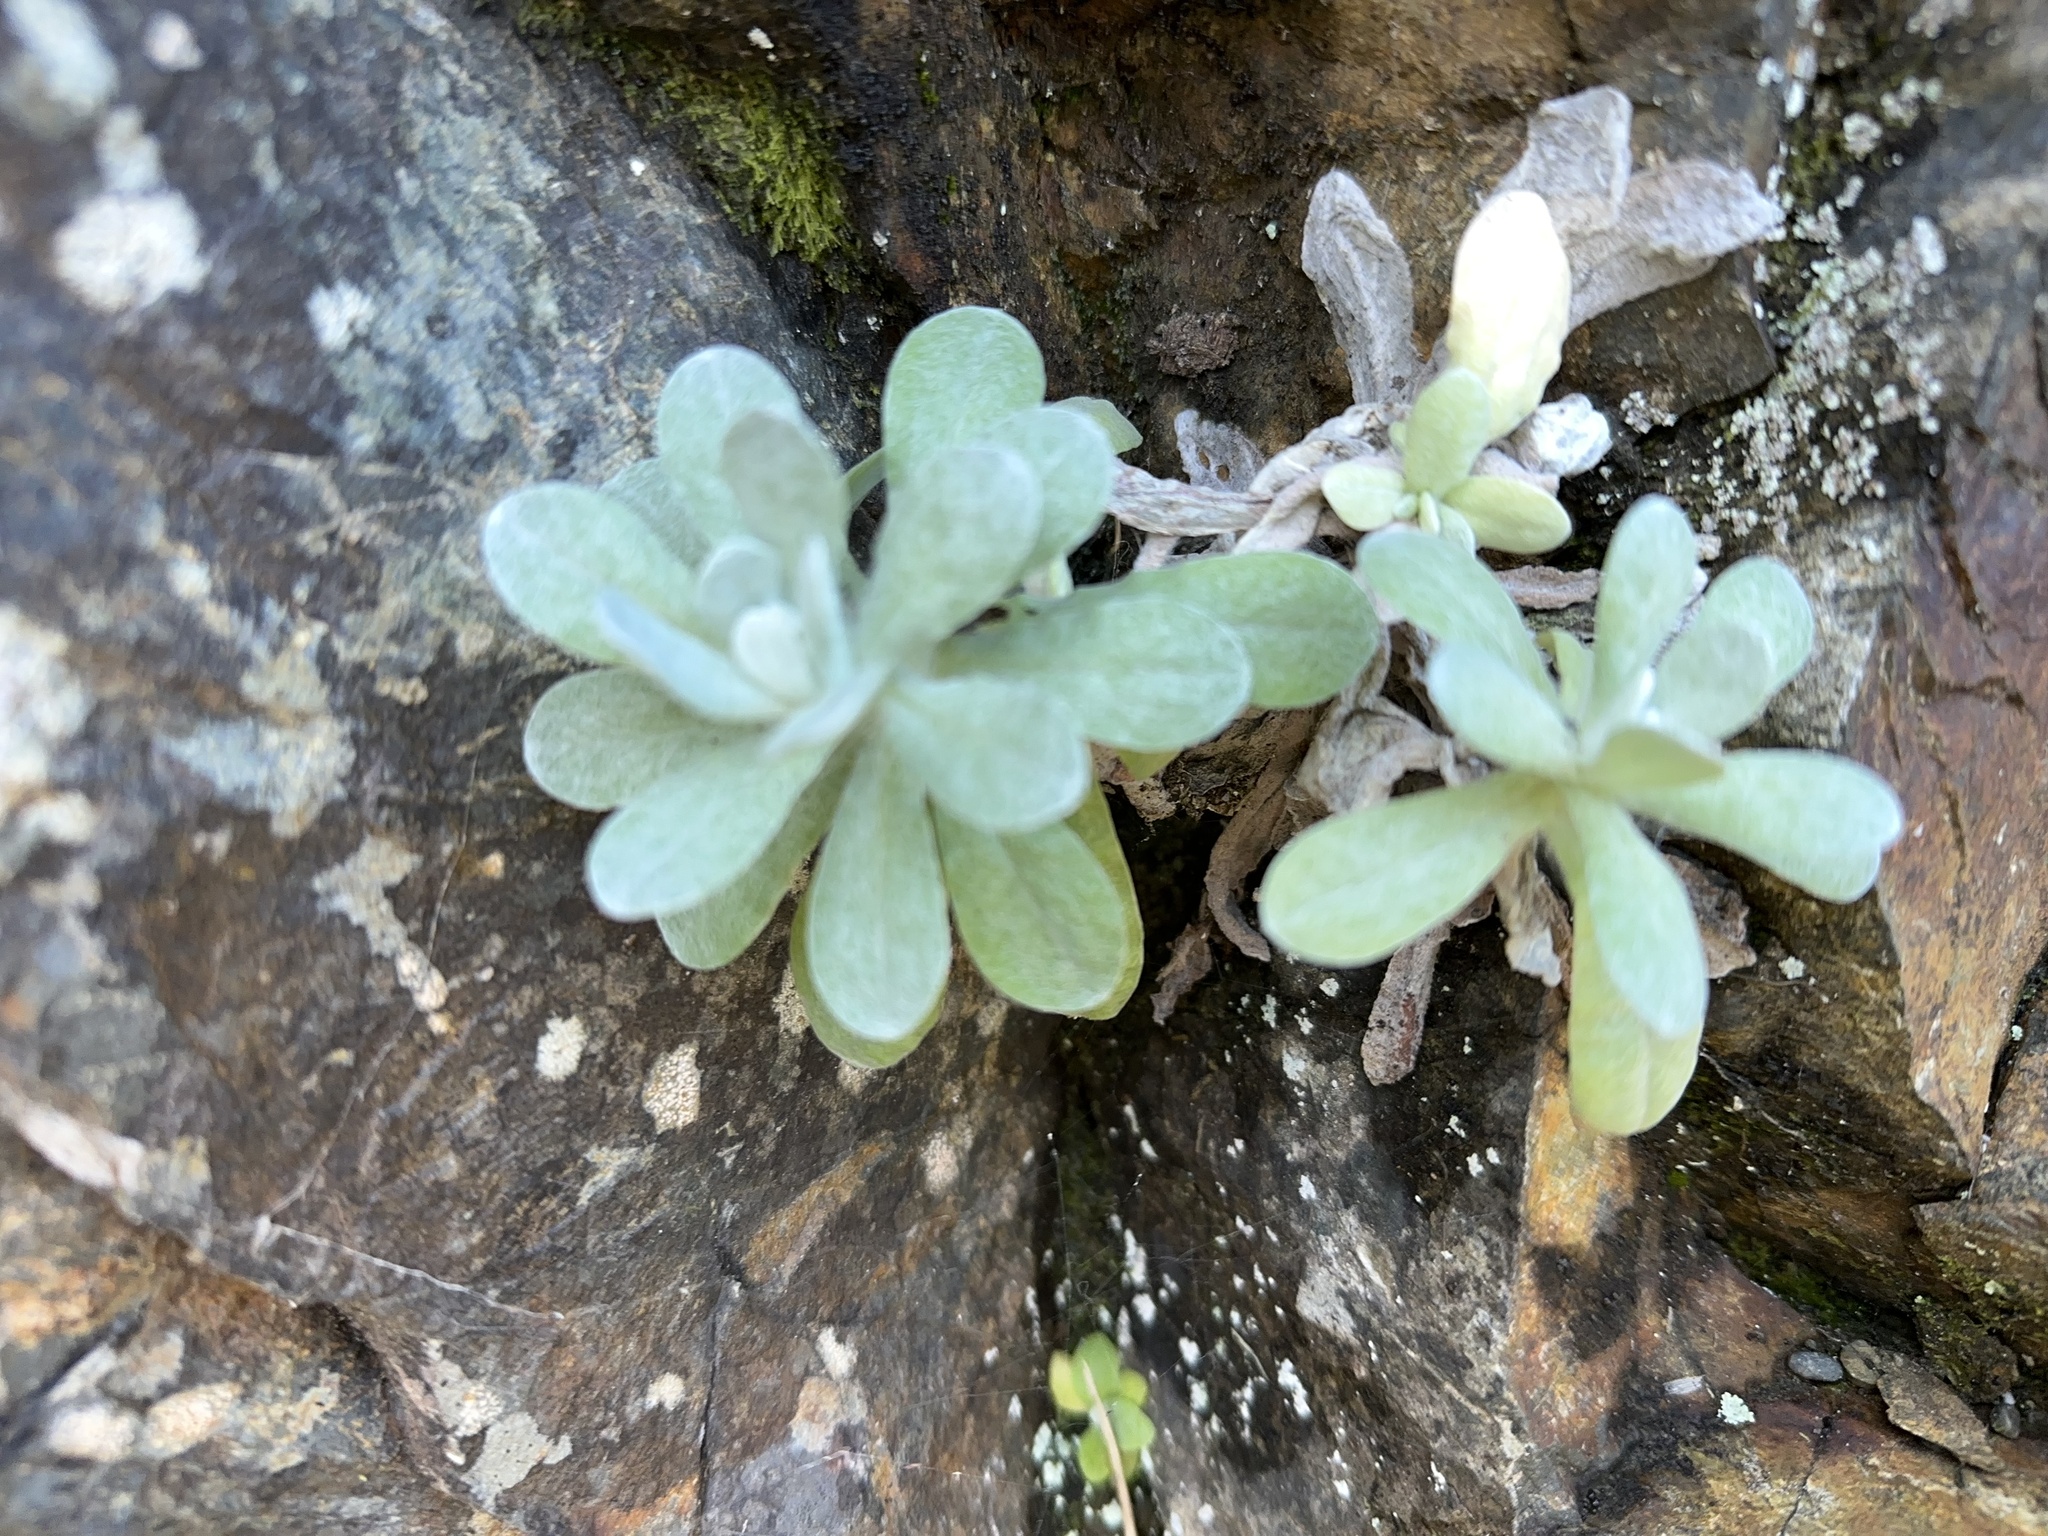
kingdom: Plantae
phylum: Tracheophyta
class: Magnoliopsida
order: Asterales
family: Asteraceae
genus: Pseudognaphalium
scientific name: Pseudognaphalium
